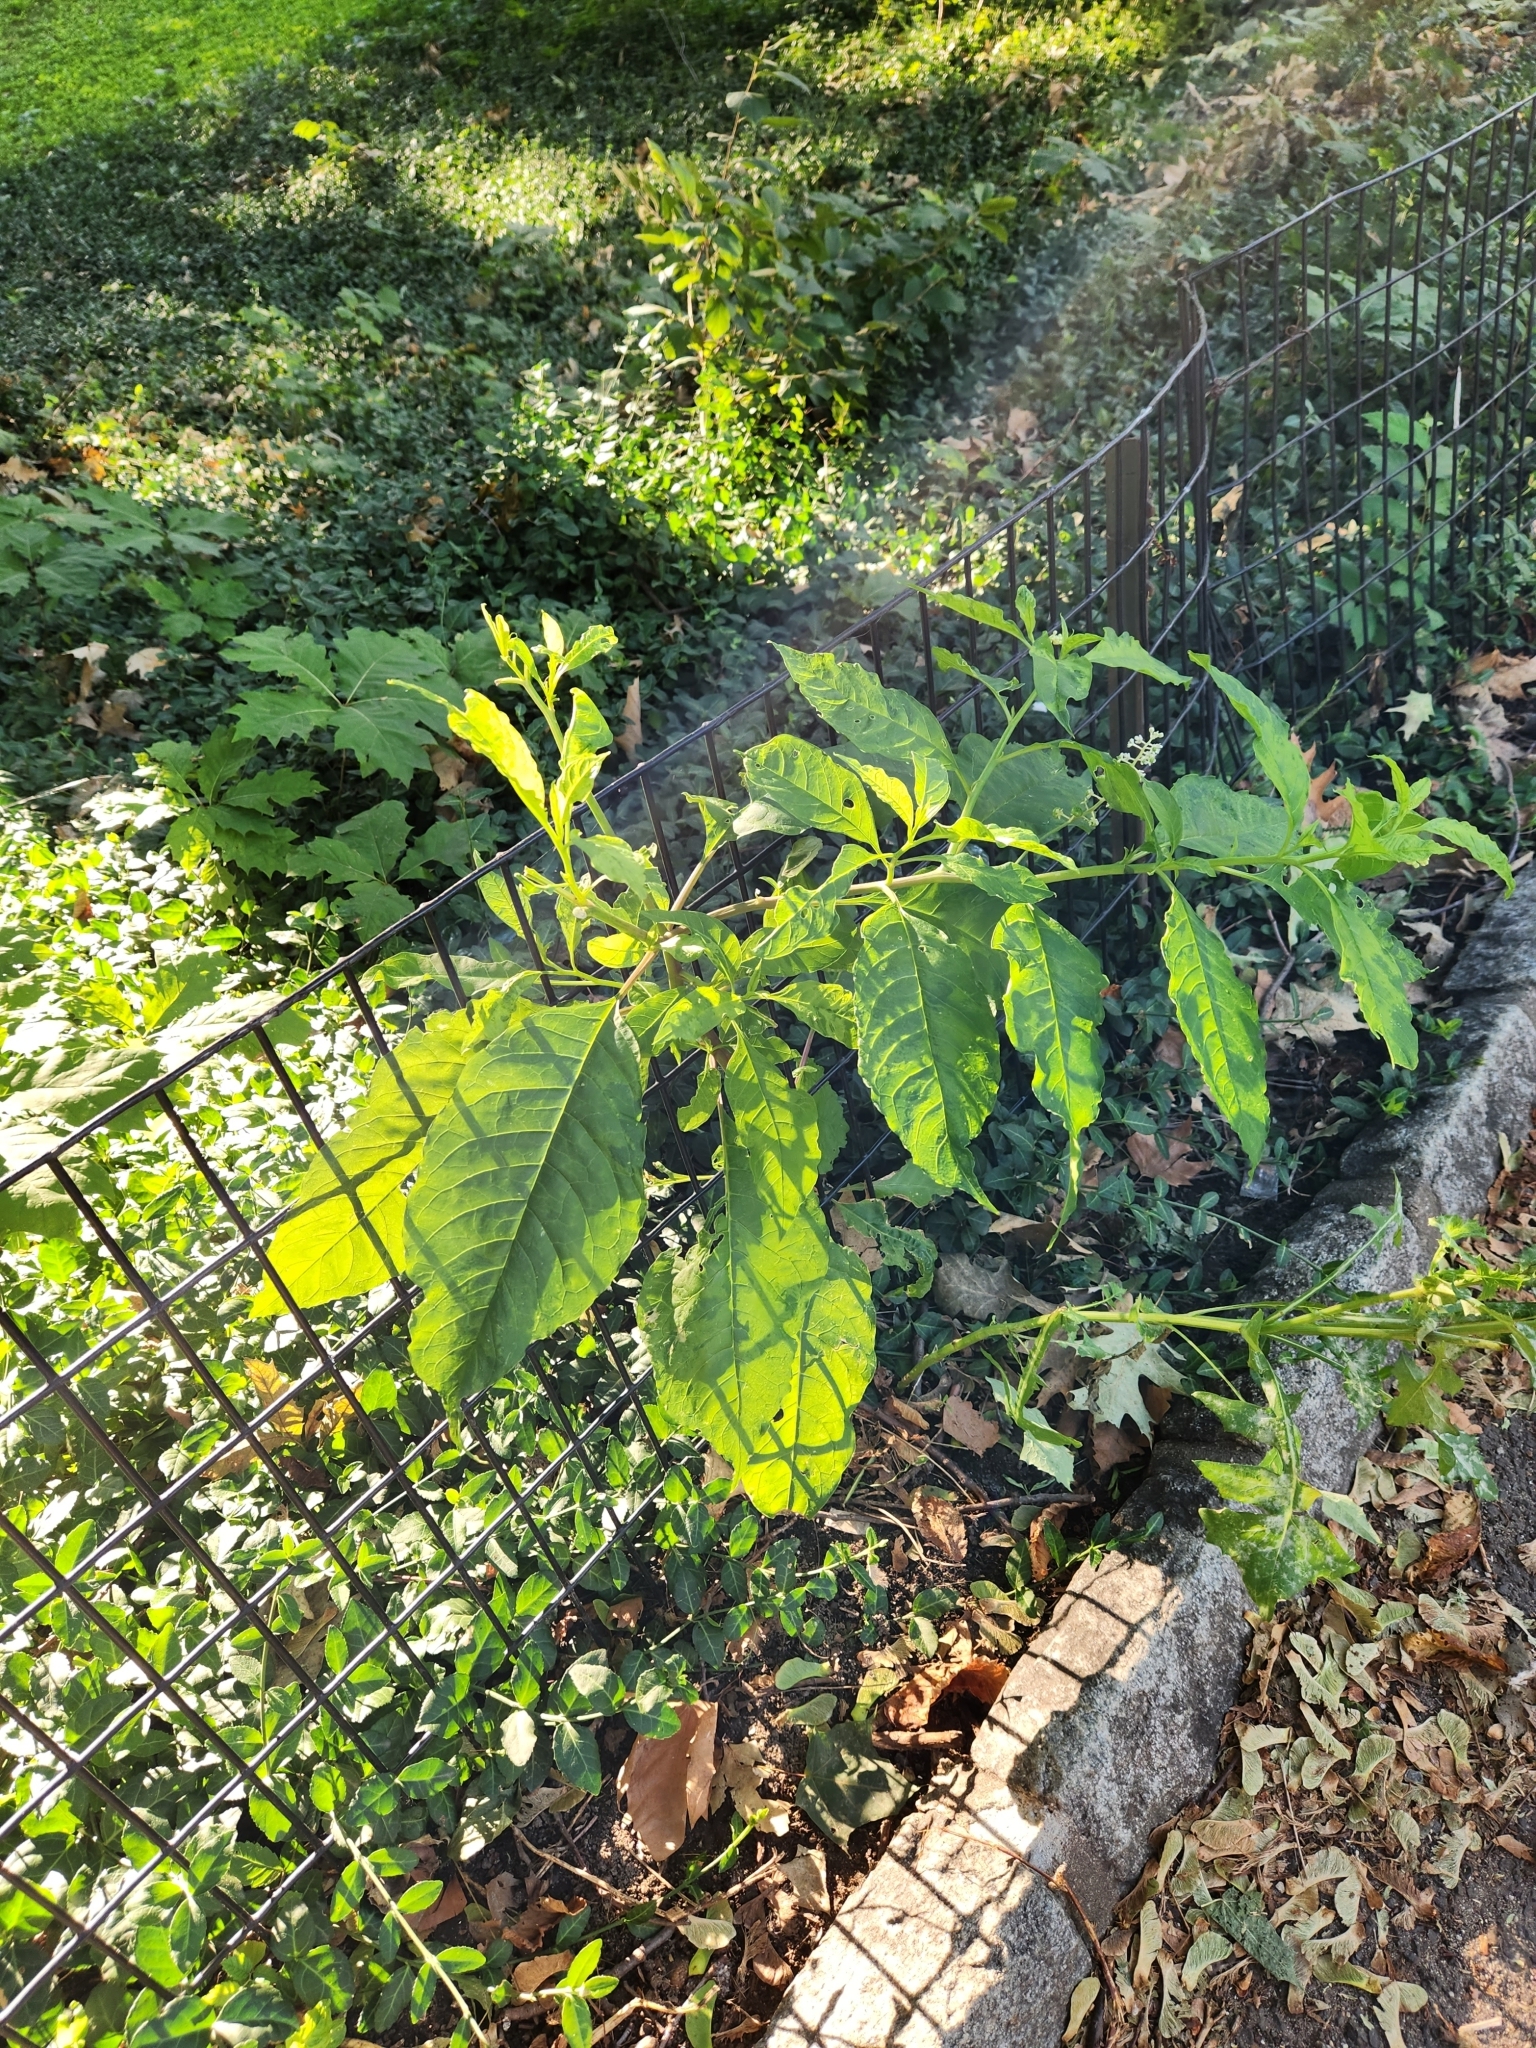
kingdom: Plantae
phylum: Tracheophyta
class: Magnoliopsida
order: Caryophyllales
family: Phytolaccaceae
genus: Phytolacca
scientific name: Phytolacca americana
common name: American pokeweed
